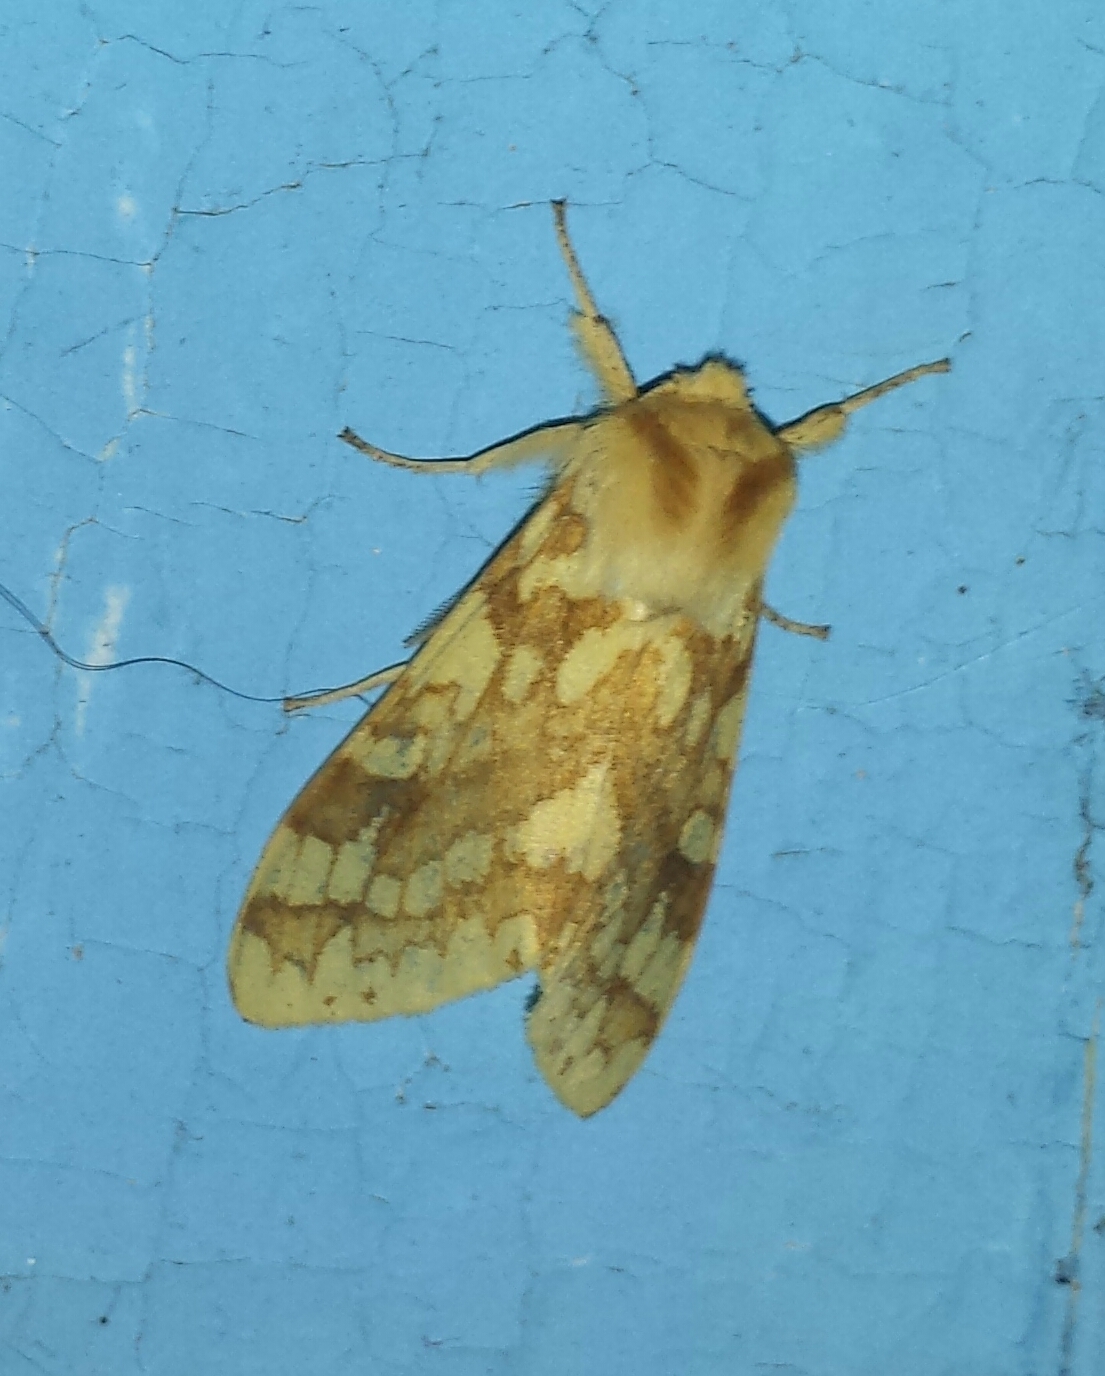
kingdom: Animalia
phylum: Arthropoda
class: Insecta
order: Lepidoptera
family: Erebidae
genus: Lophocampa
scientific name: Lophocampa maculata
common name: Spotted tussock moth
